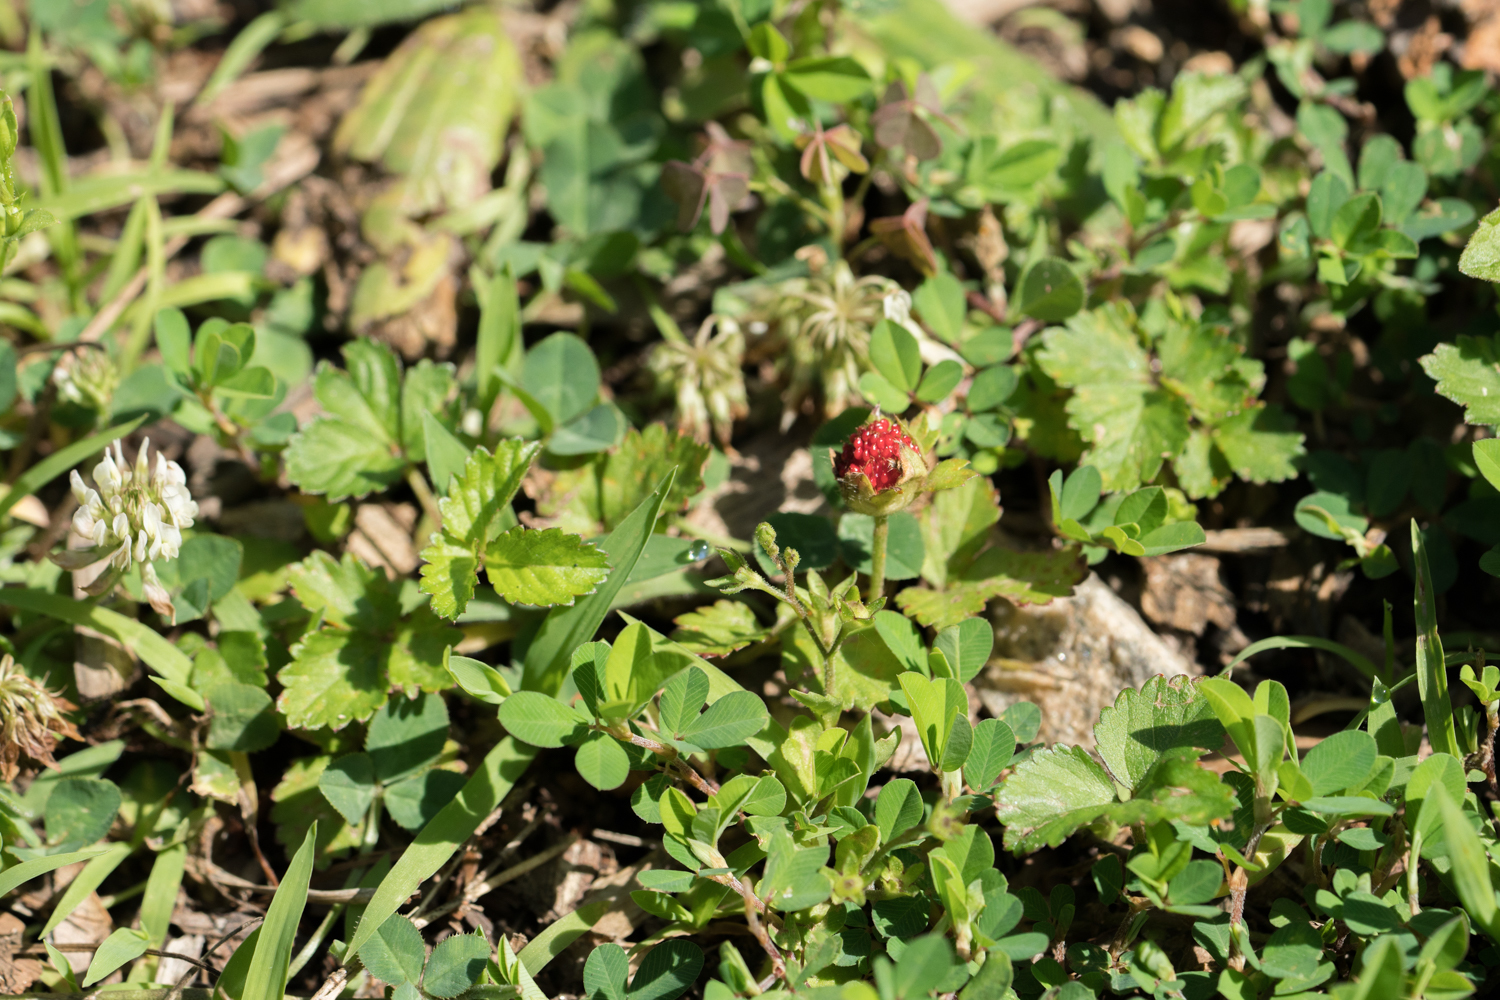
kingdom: Plantae
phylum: Tracheophyta
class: Magnoliopsida
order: Rosales
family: Rosaceae
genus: Potentilla
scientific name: Potentilla indica
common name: Yellow-flowered strawberry
